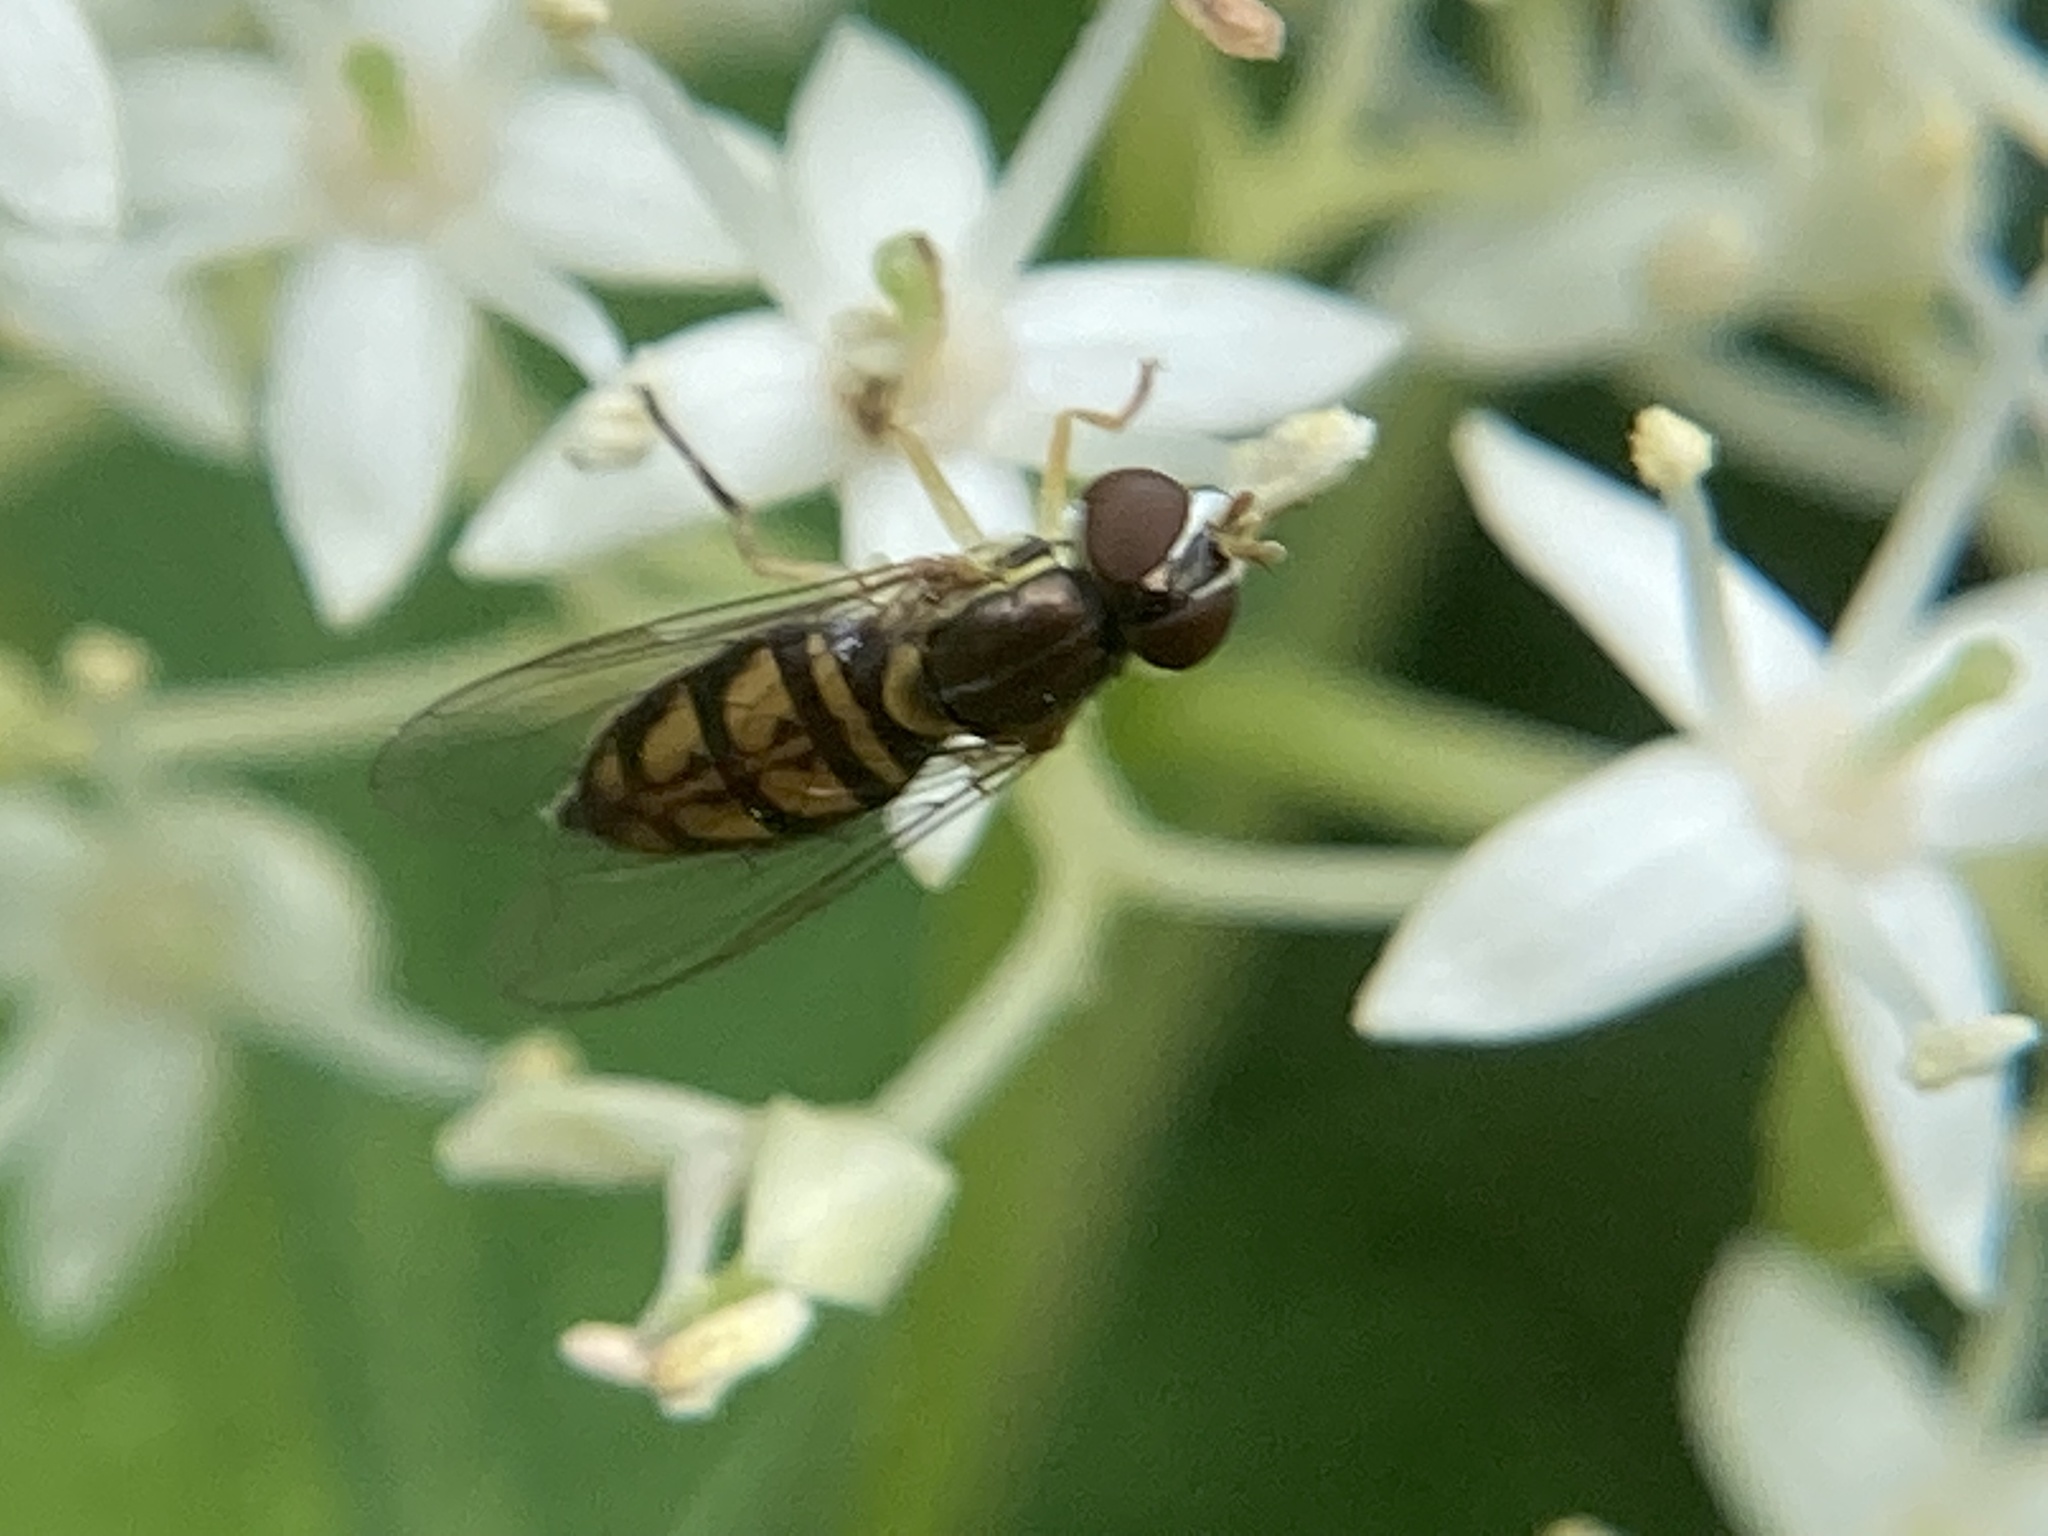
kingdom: Animalia
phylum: Arthropoda
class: Insecta
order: Diptera
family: Syrphidae
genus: Toxomerus
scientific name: Toxomerus marginatus
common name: Syrphid fly
